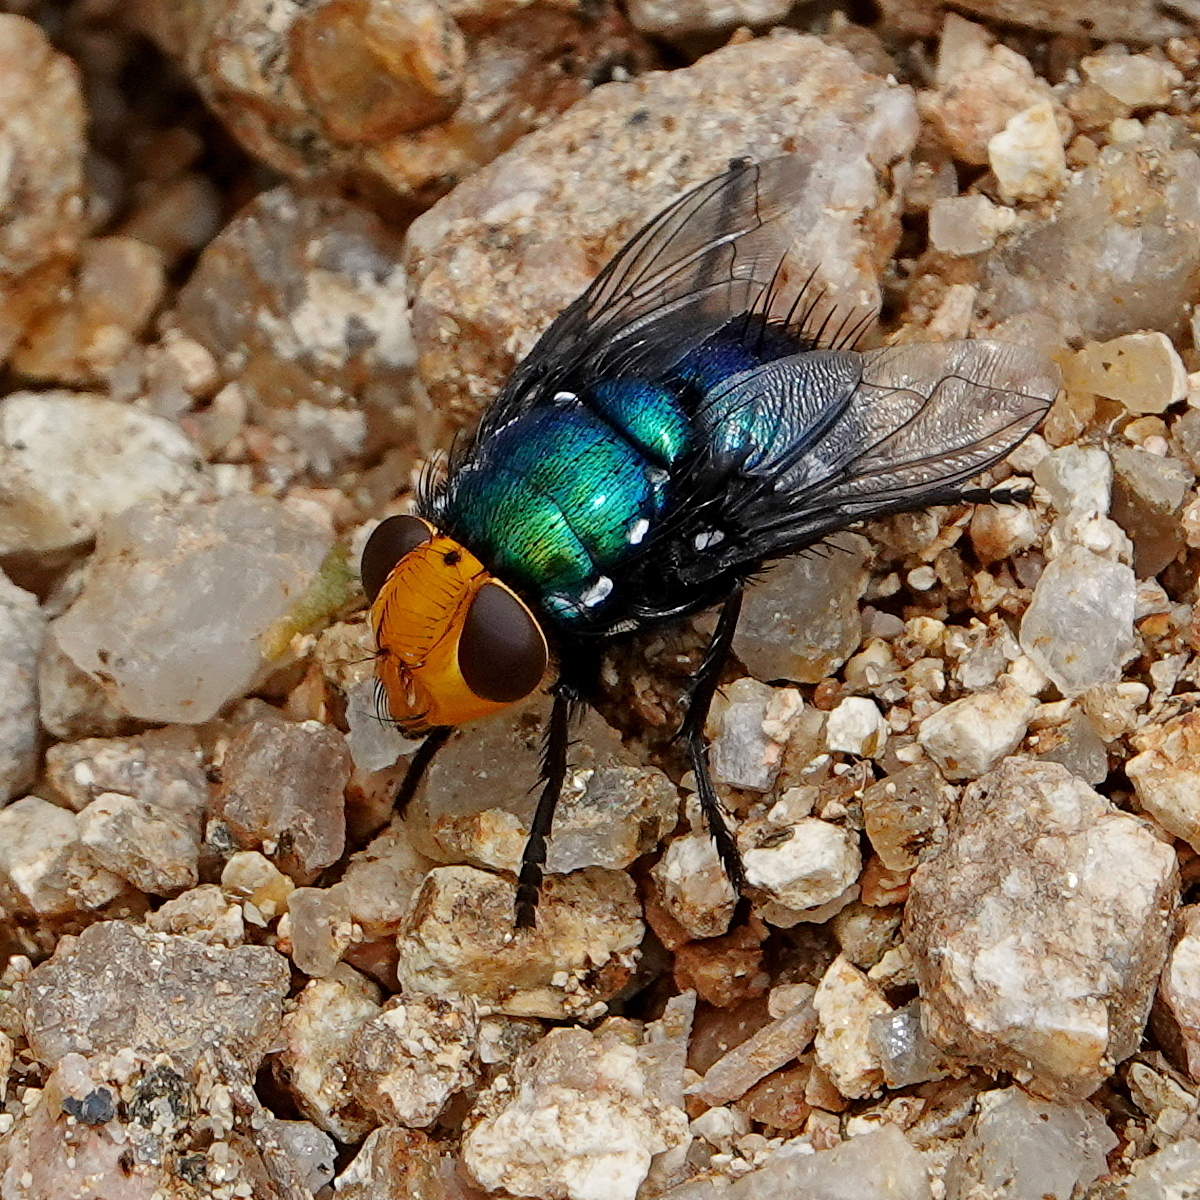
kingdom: Animalia
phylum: Arthropoda
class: Insecta
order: Diptera
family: Calliphoridae
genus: Amenia
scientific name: Amenia imperialis
